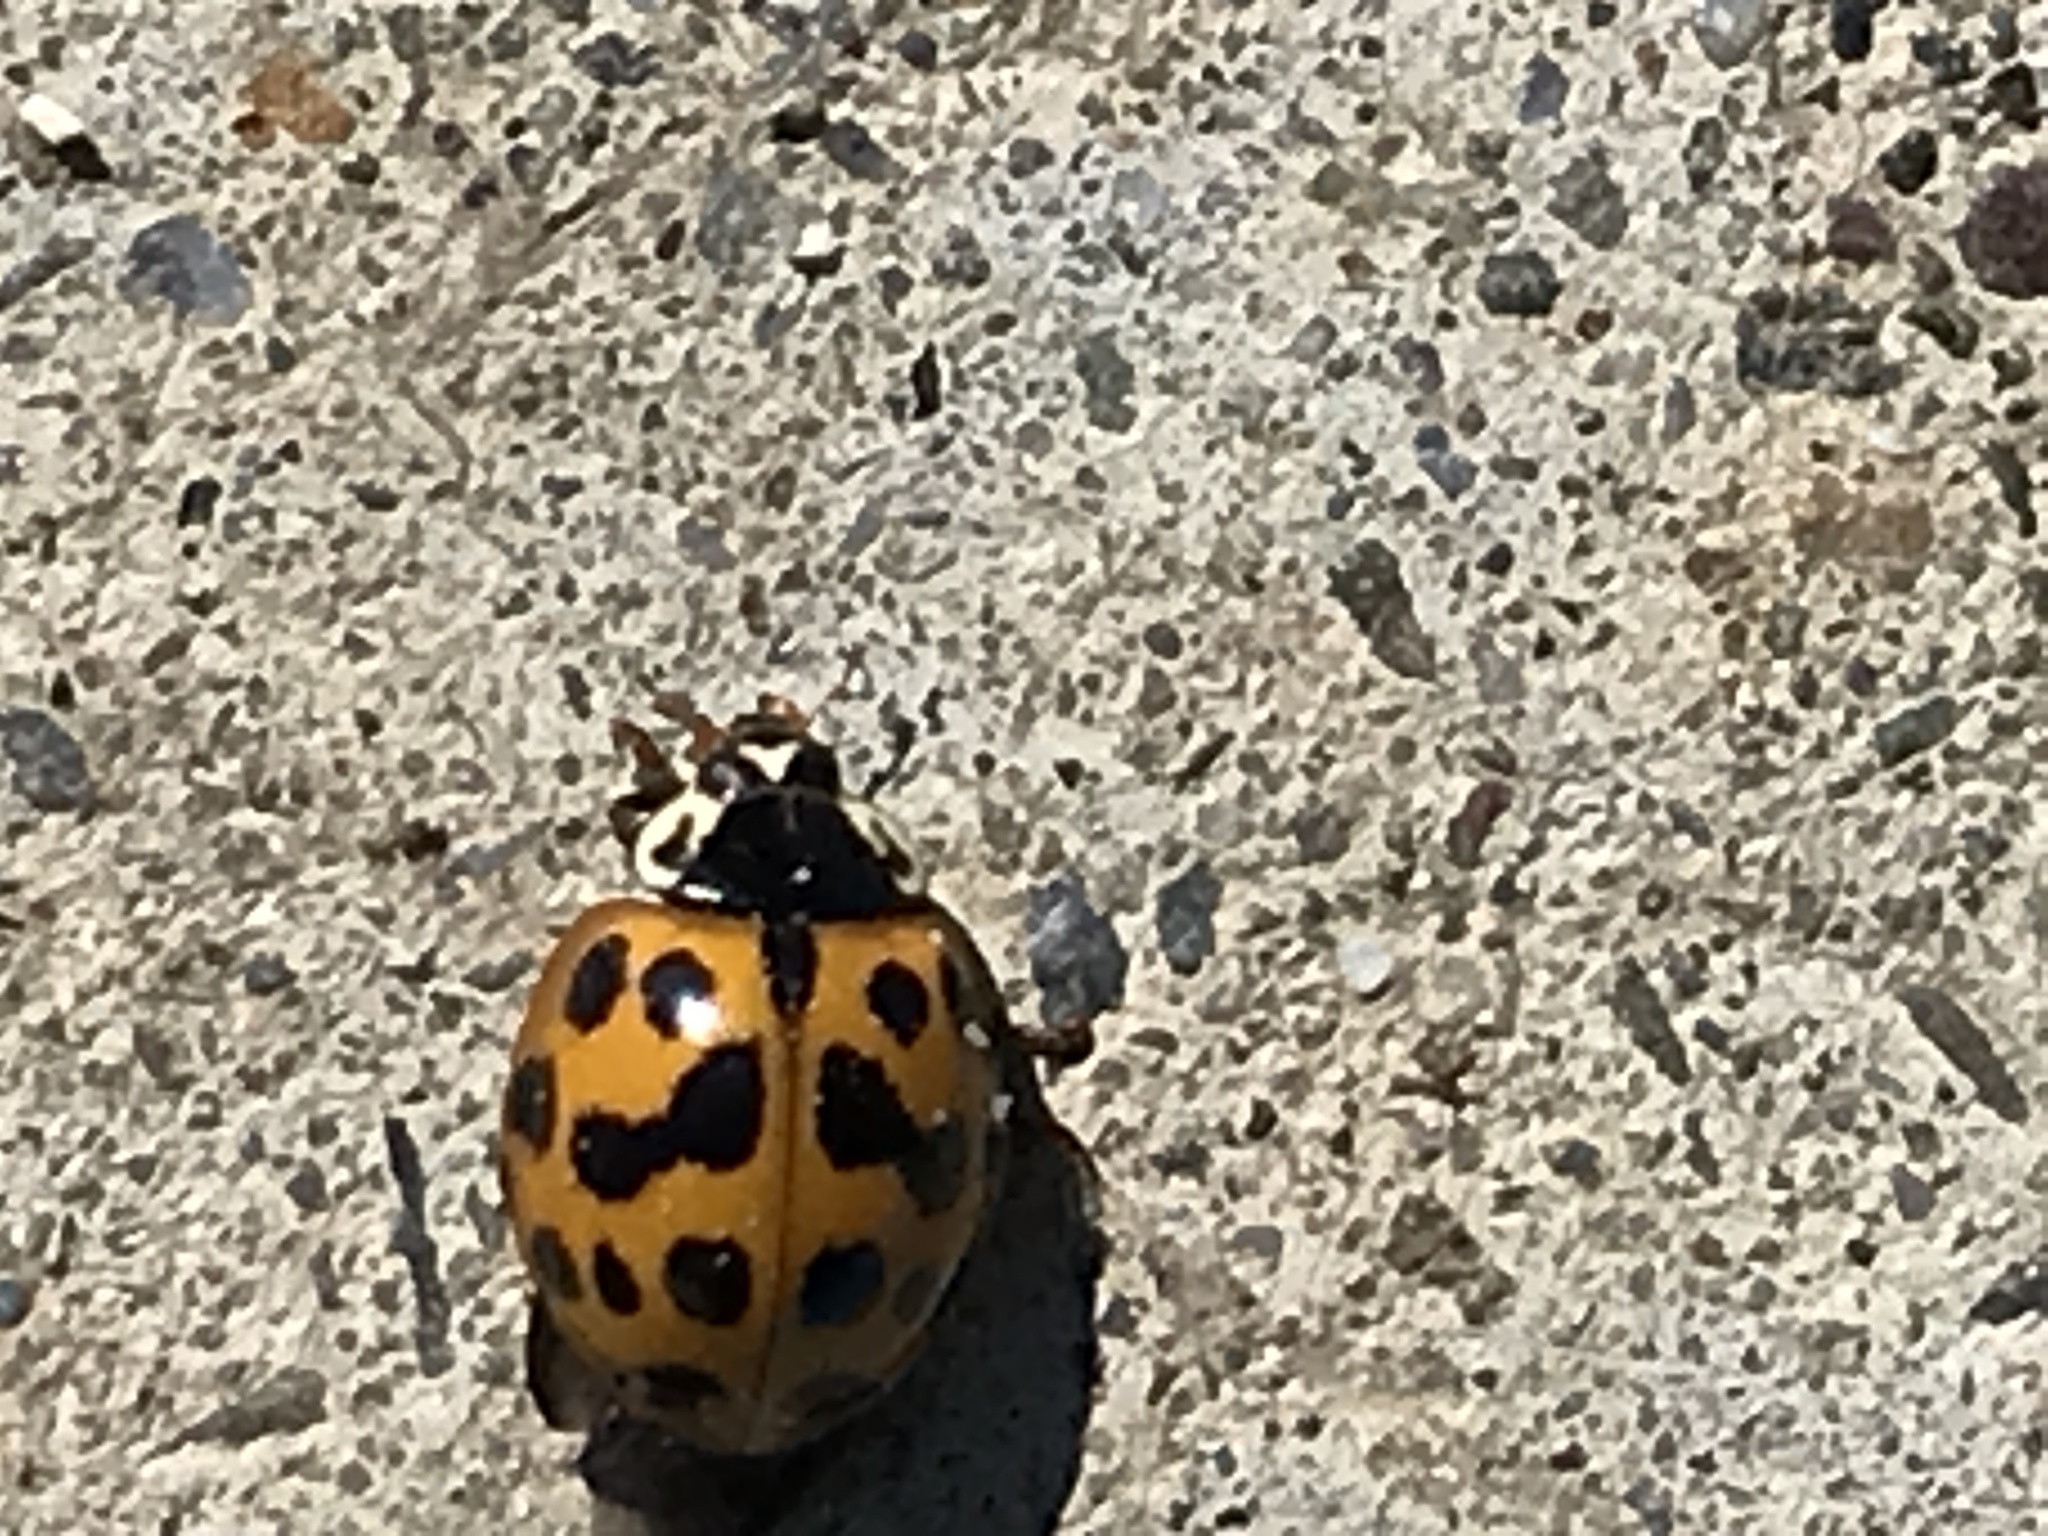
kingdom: Animalia
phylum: Arthropoda
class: Insecta
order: Coleoptera
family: Coccinellidae
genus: Harmonia
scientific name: Harmonia axyridis
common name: Harlequin ladybird
